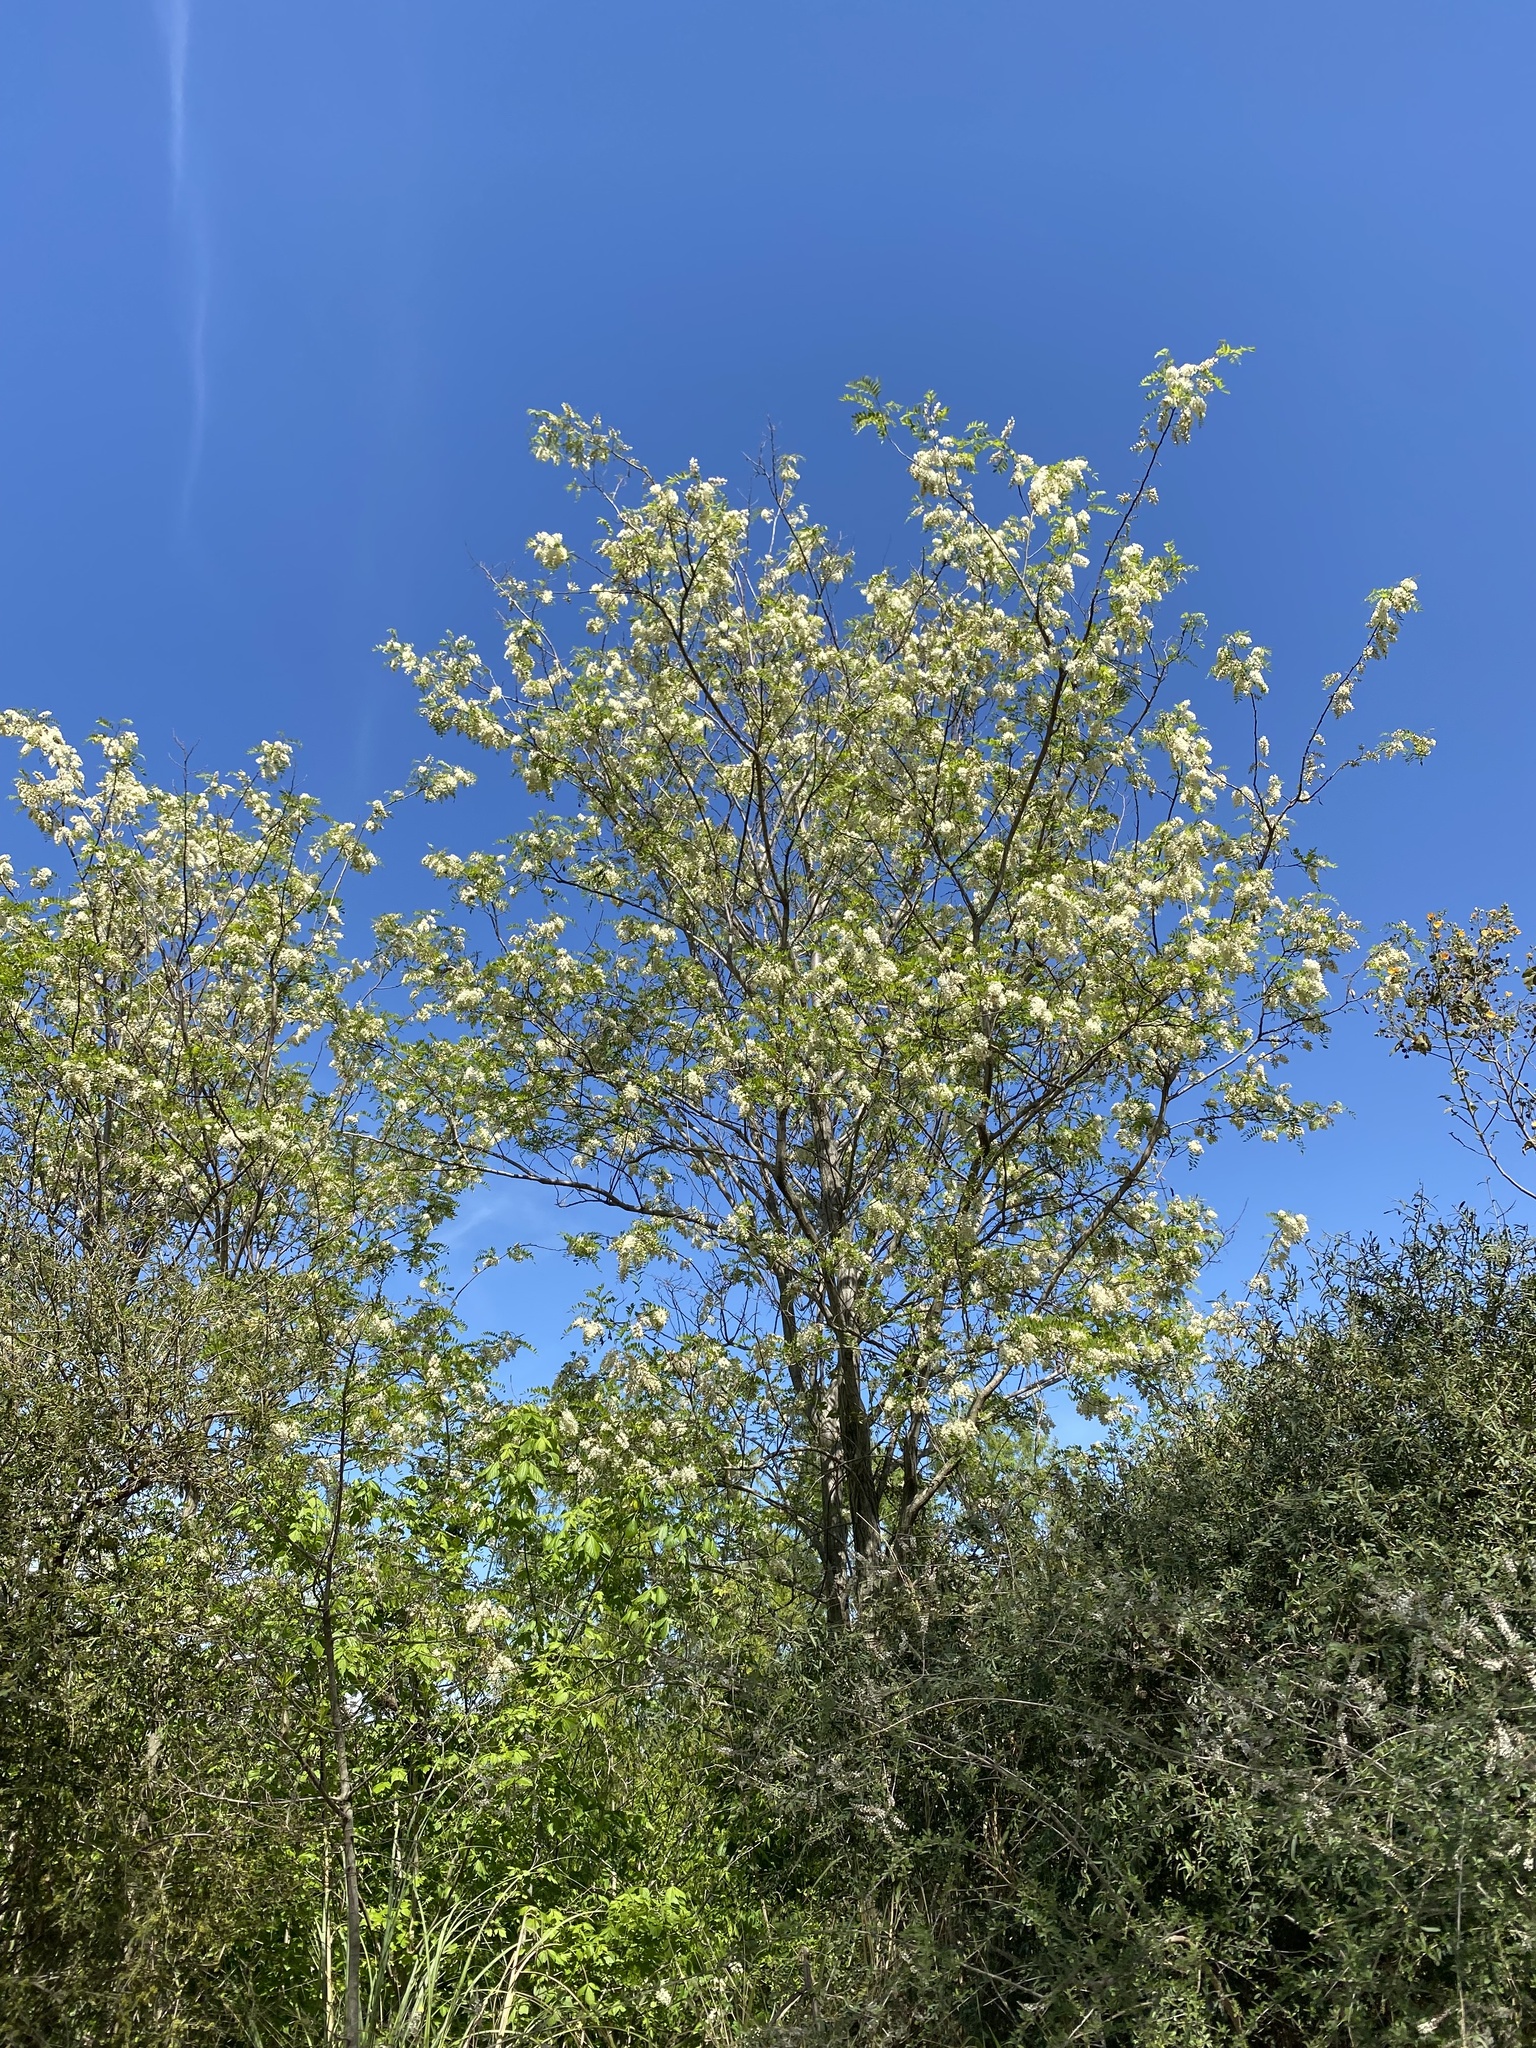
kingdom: Plantae
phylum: Tracheophyta
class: Magnoliopsida
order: Fabales
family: Fabaceae
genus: Robinia
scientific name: Robinia pseudoacacia
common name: Black locust
